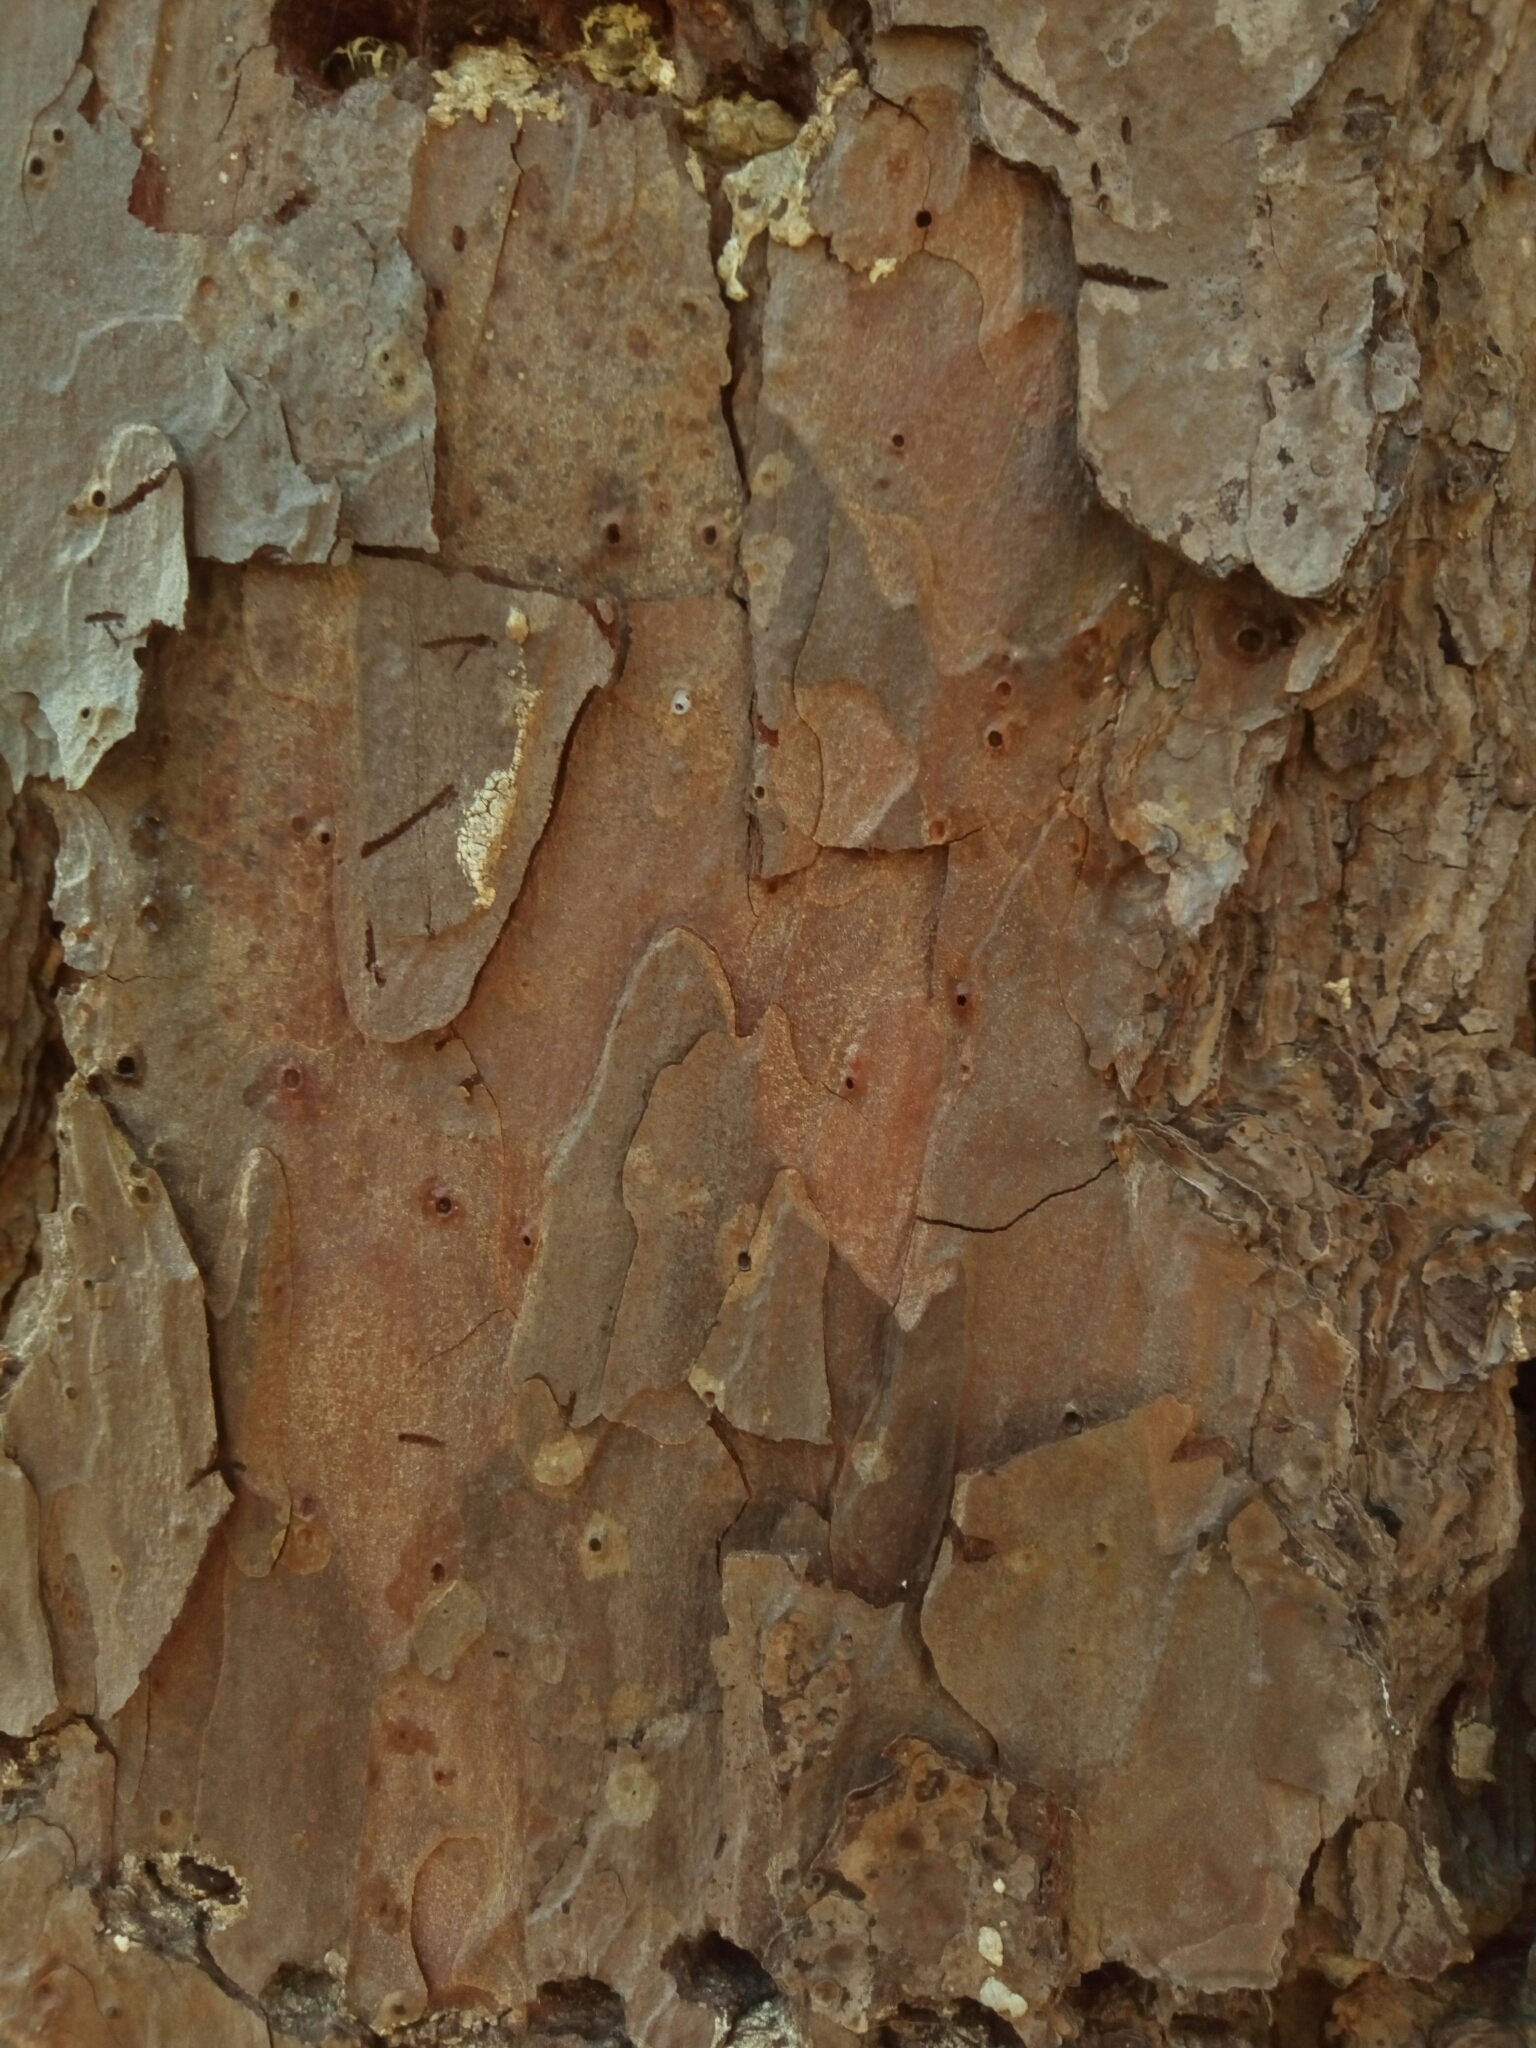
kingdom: Plantae
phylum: Tracheophyta
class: Pinopsida
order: Pinales
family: Pinaceae
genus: Pinus
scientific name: Pinus echinata
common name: Shortleaf pine
